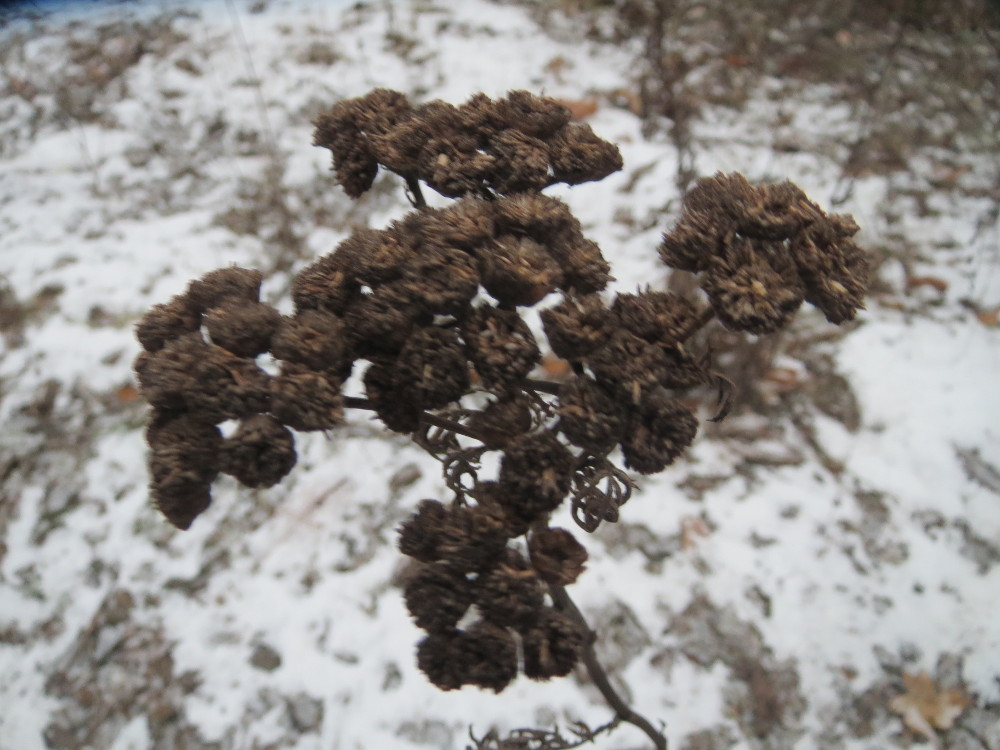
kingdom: Plantae
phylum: Tracheophyta
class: Magnoliopsida
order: Asterales
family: Asteraceae
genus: Tanacetum
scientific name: Tanacetum vulgare
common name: Common tansy
